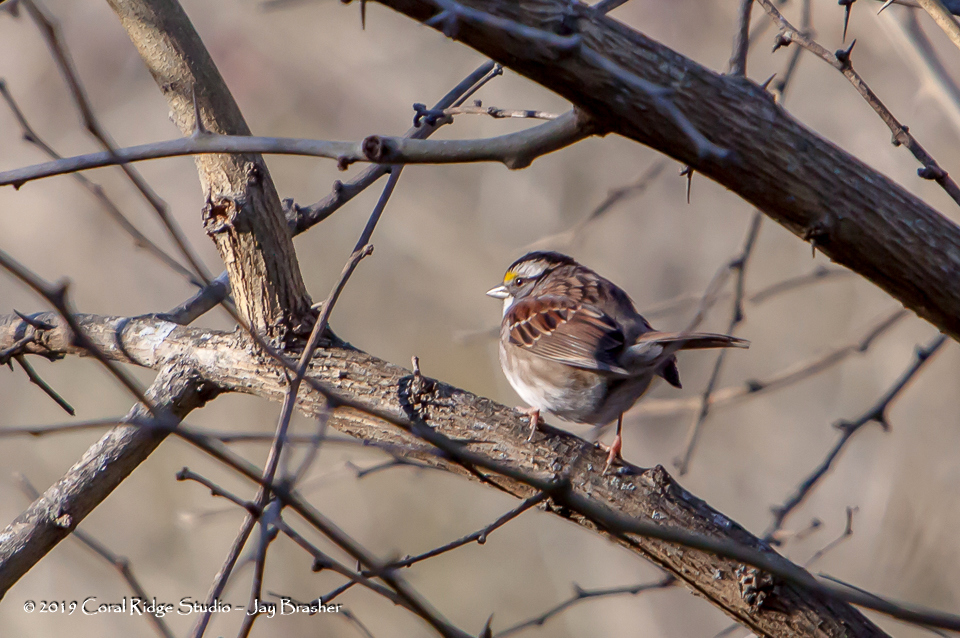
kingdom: Animalia
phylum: Chordata
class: Aves
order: Passeriformes
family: Passerellidae
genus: Zonotrichia
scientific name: Zonotrichia albicollis
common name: White-throated sparrow
